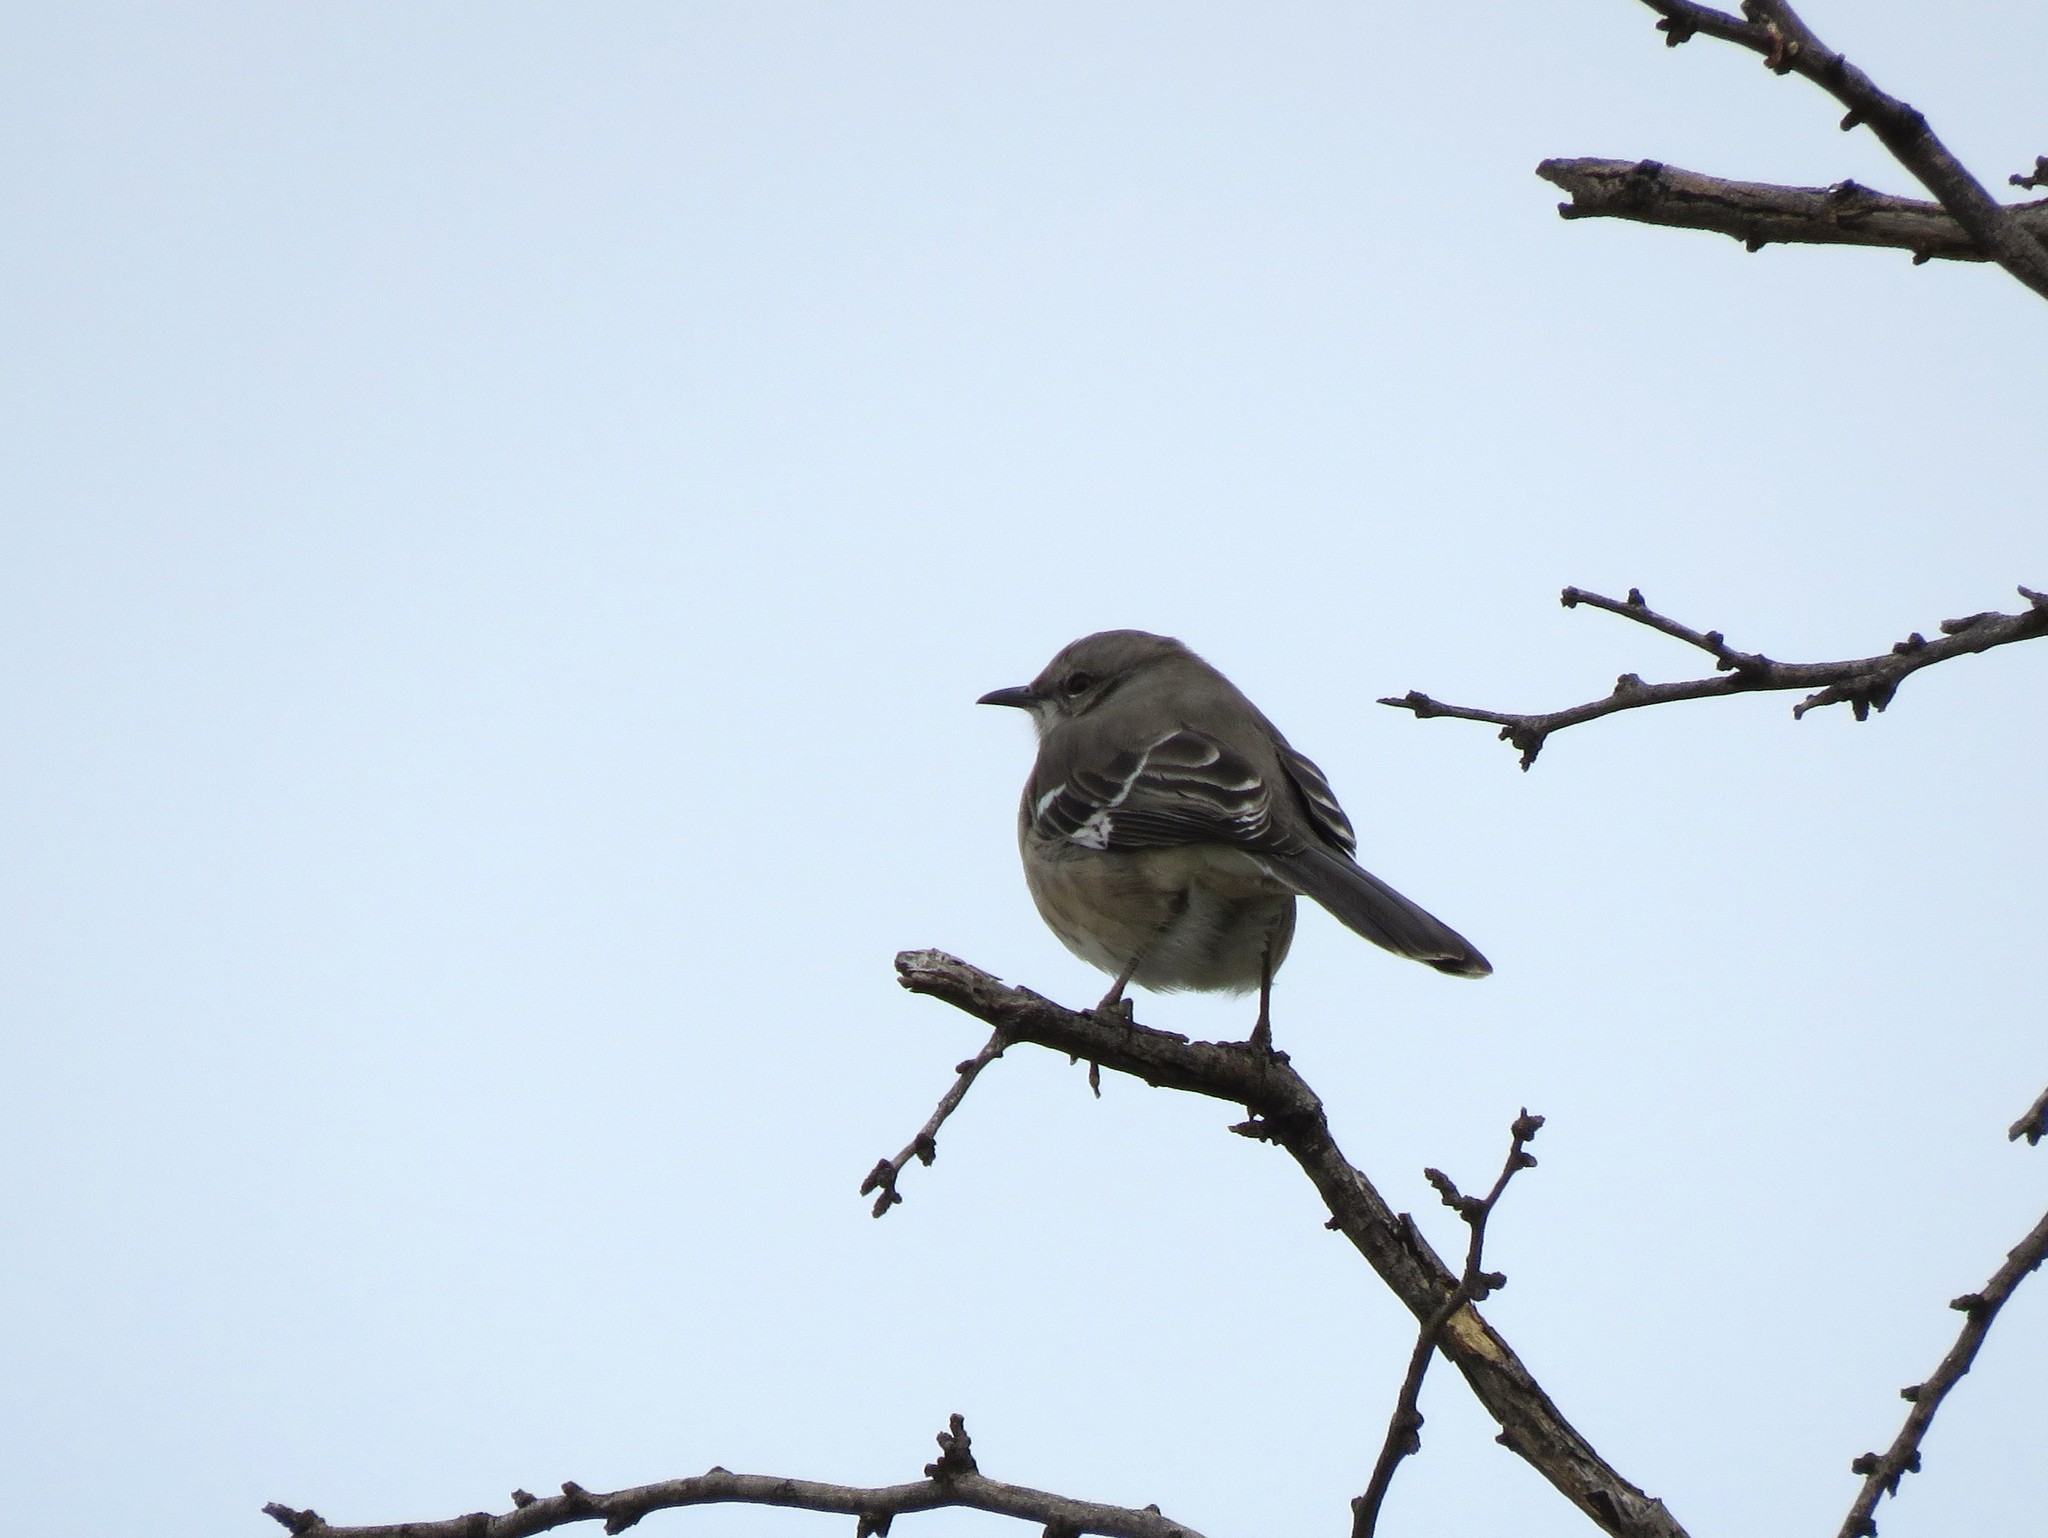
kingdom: Animalia
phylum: Chordata
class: Aves
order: Passeriformes
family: Mimidae
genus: Mimus
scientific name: Mimus polyglottos
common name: Northern mockingbird
